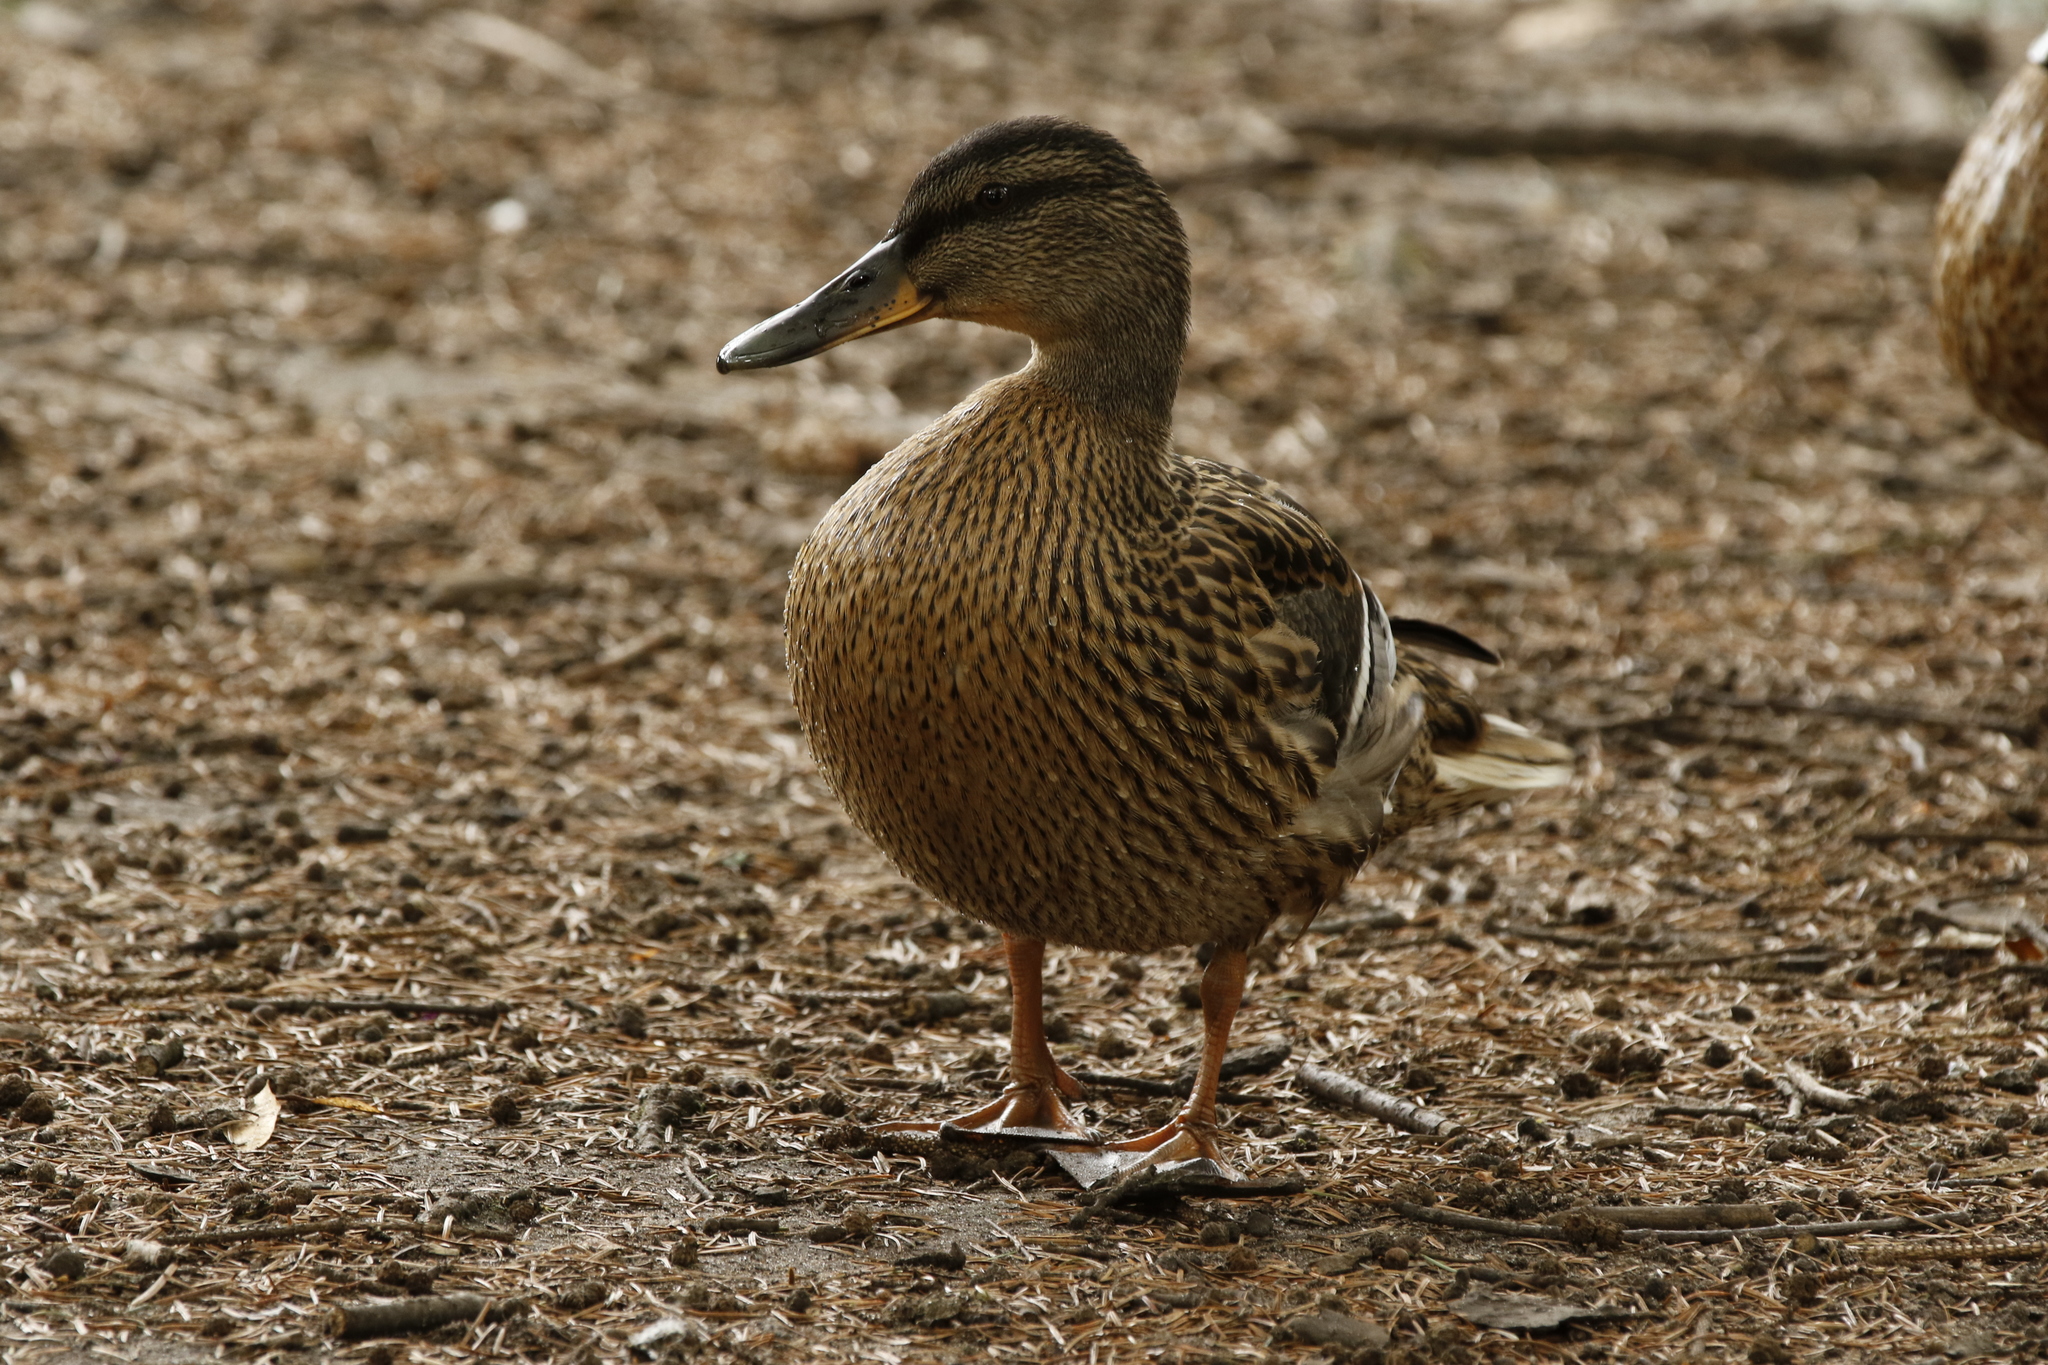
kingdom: Animalia
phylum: Chordata
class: Aves
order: Anseriformes
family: Anatidae
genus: Anas
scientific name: Anas platyrhynchos
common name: Mallard
